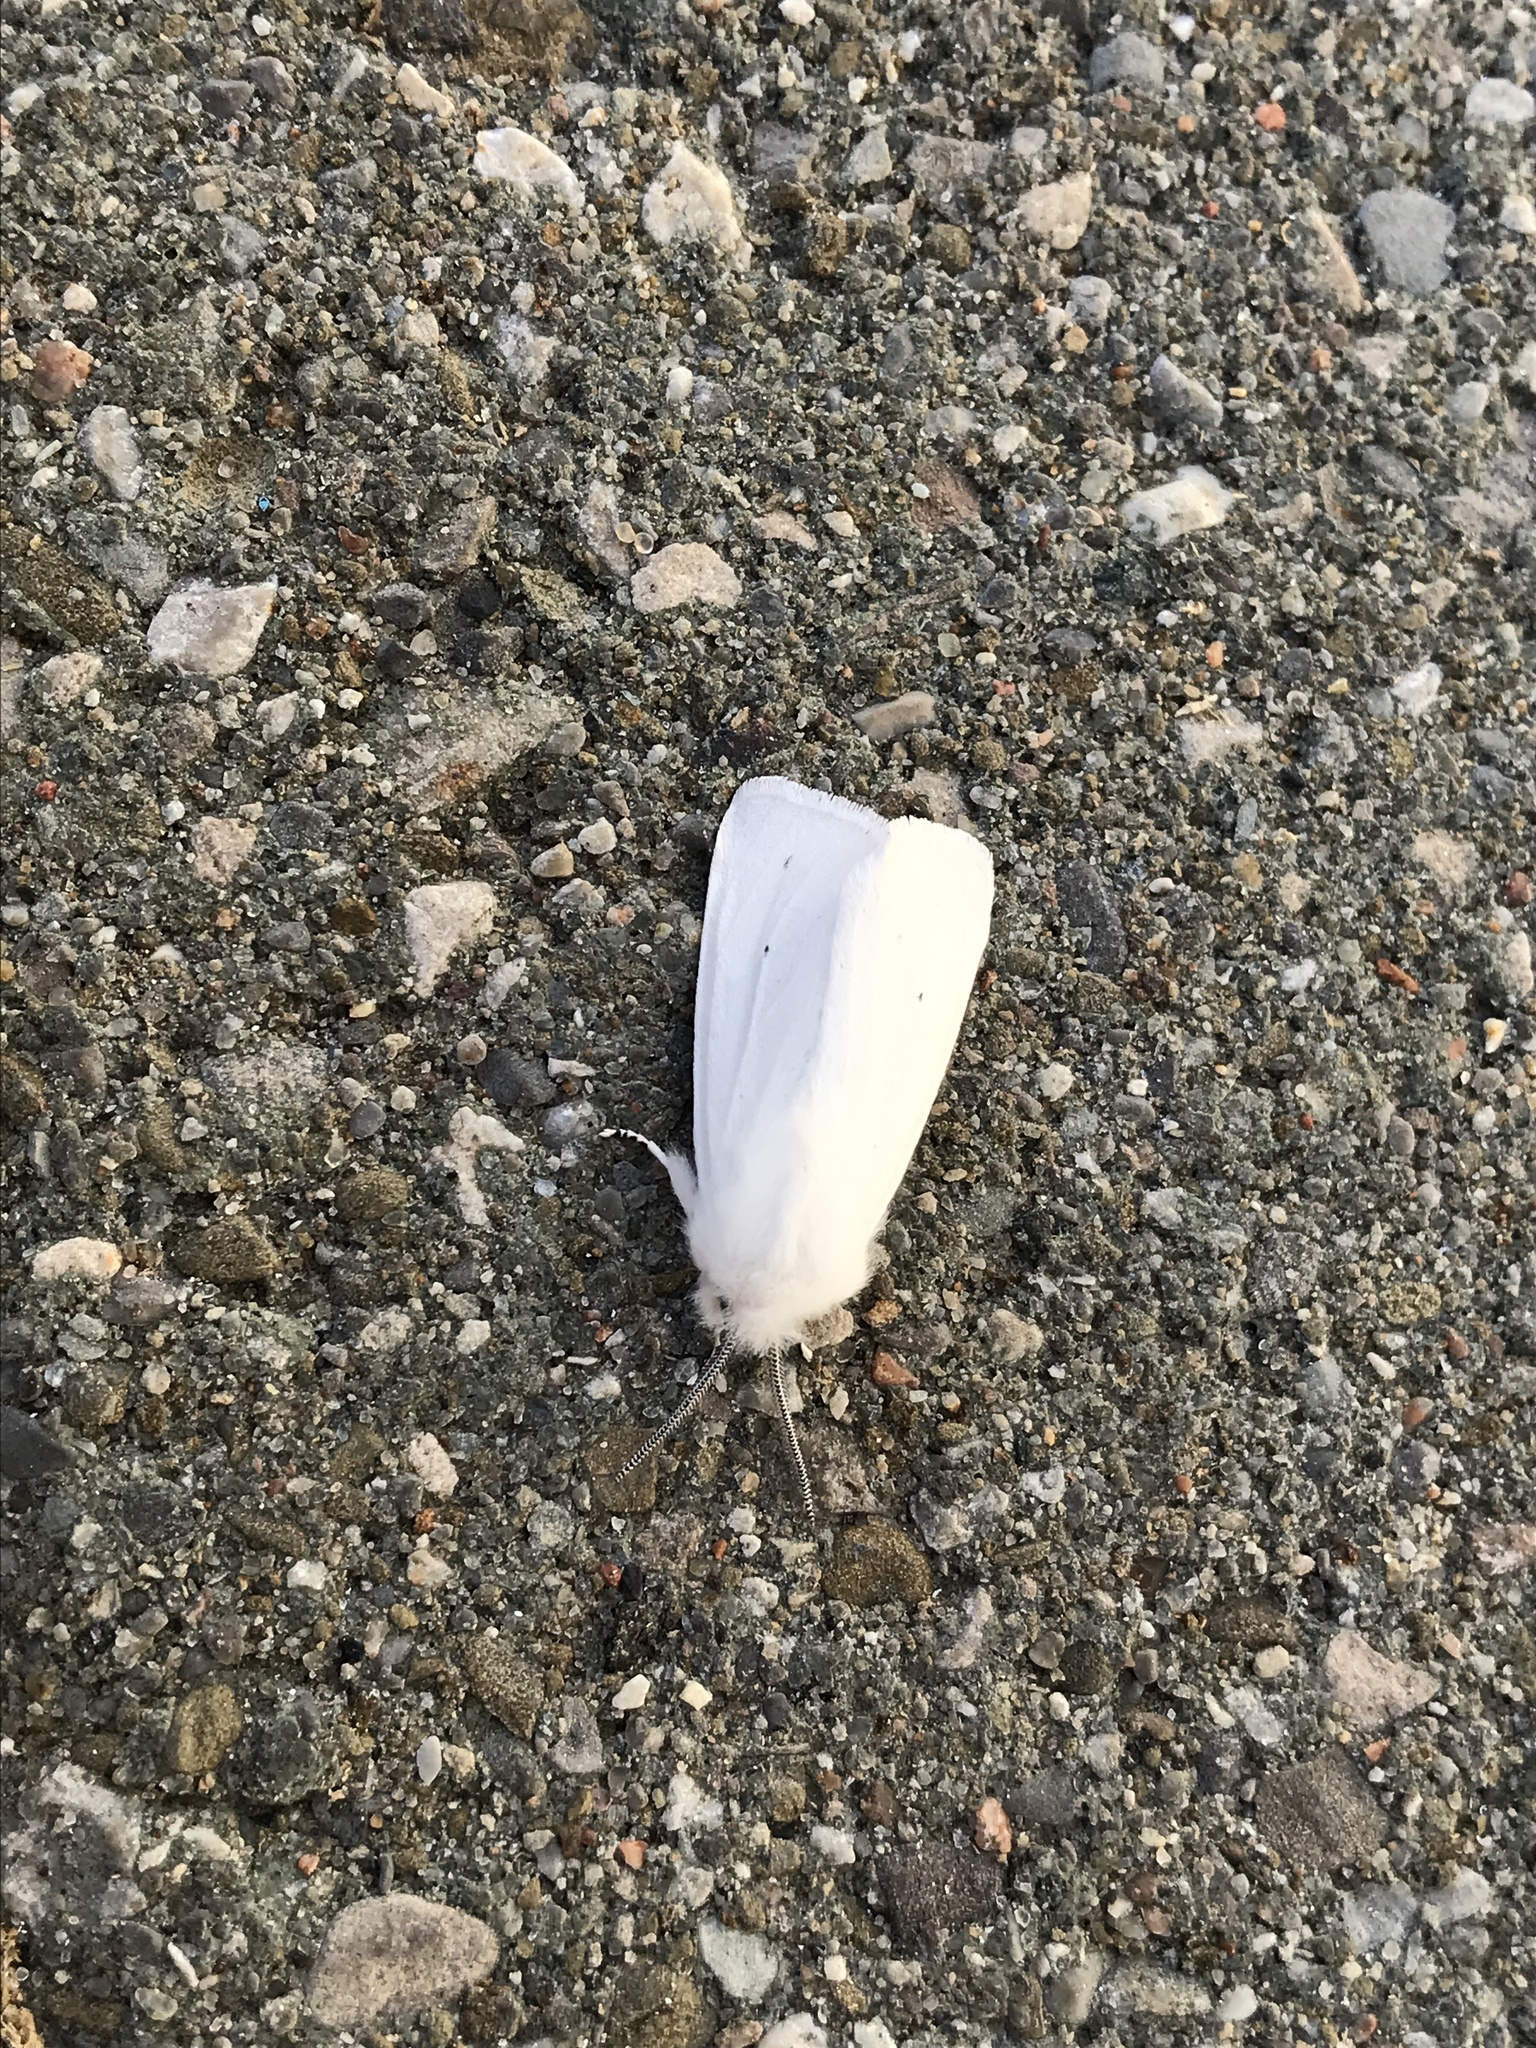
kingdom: Animalia
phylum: Arthropoda
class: Insecta
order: Lepidoptera
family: Erebidae
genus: Spilosoma
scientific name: Spilosoma virginica
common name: Virginia tiger moth
